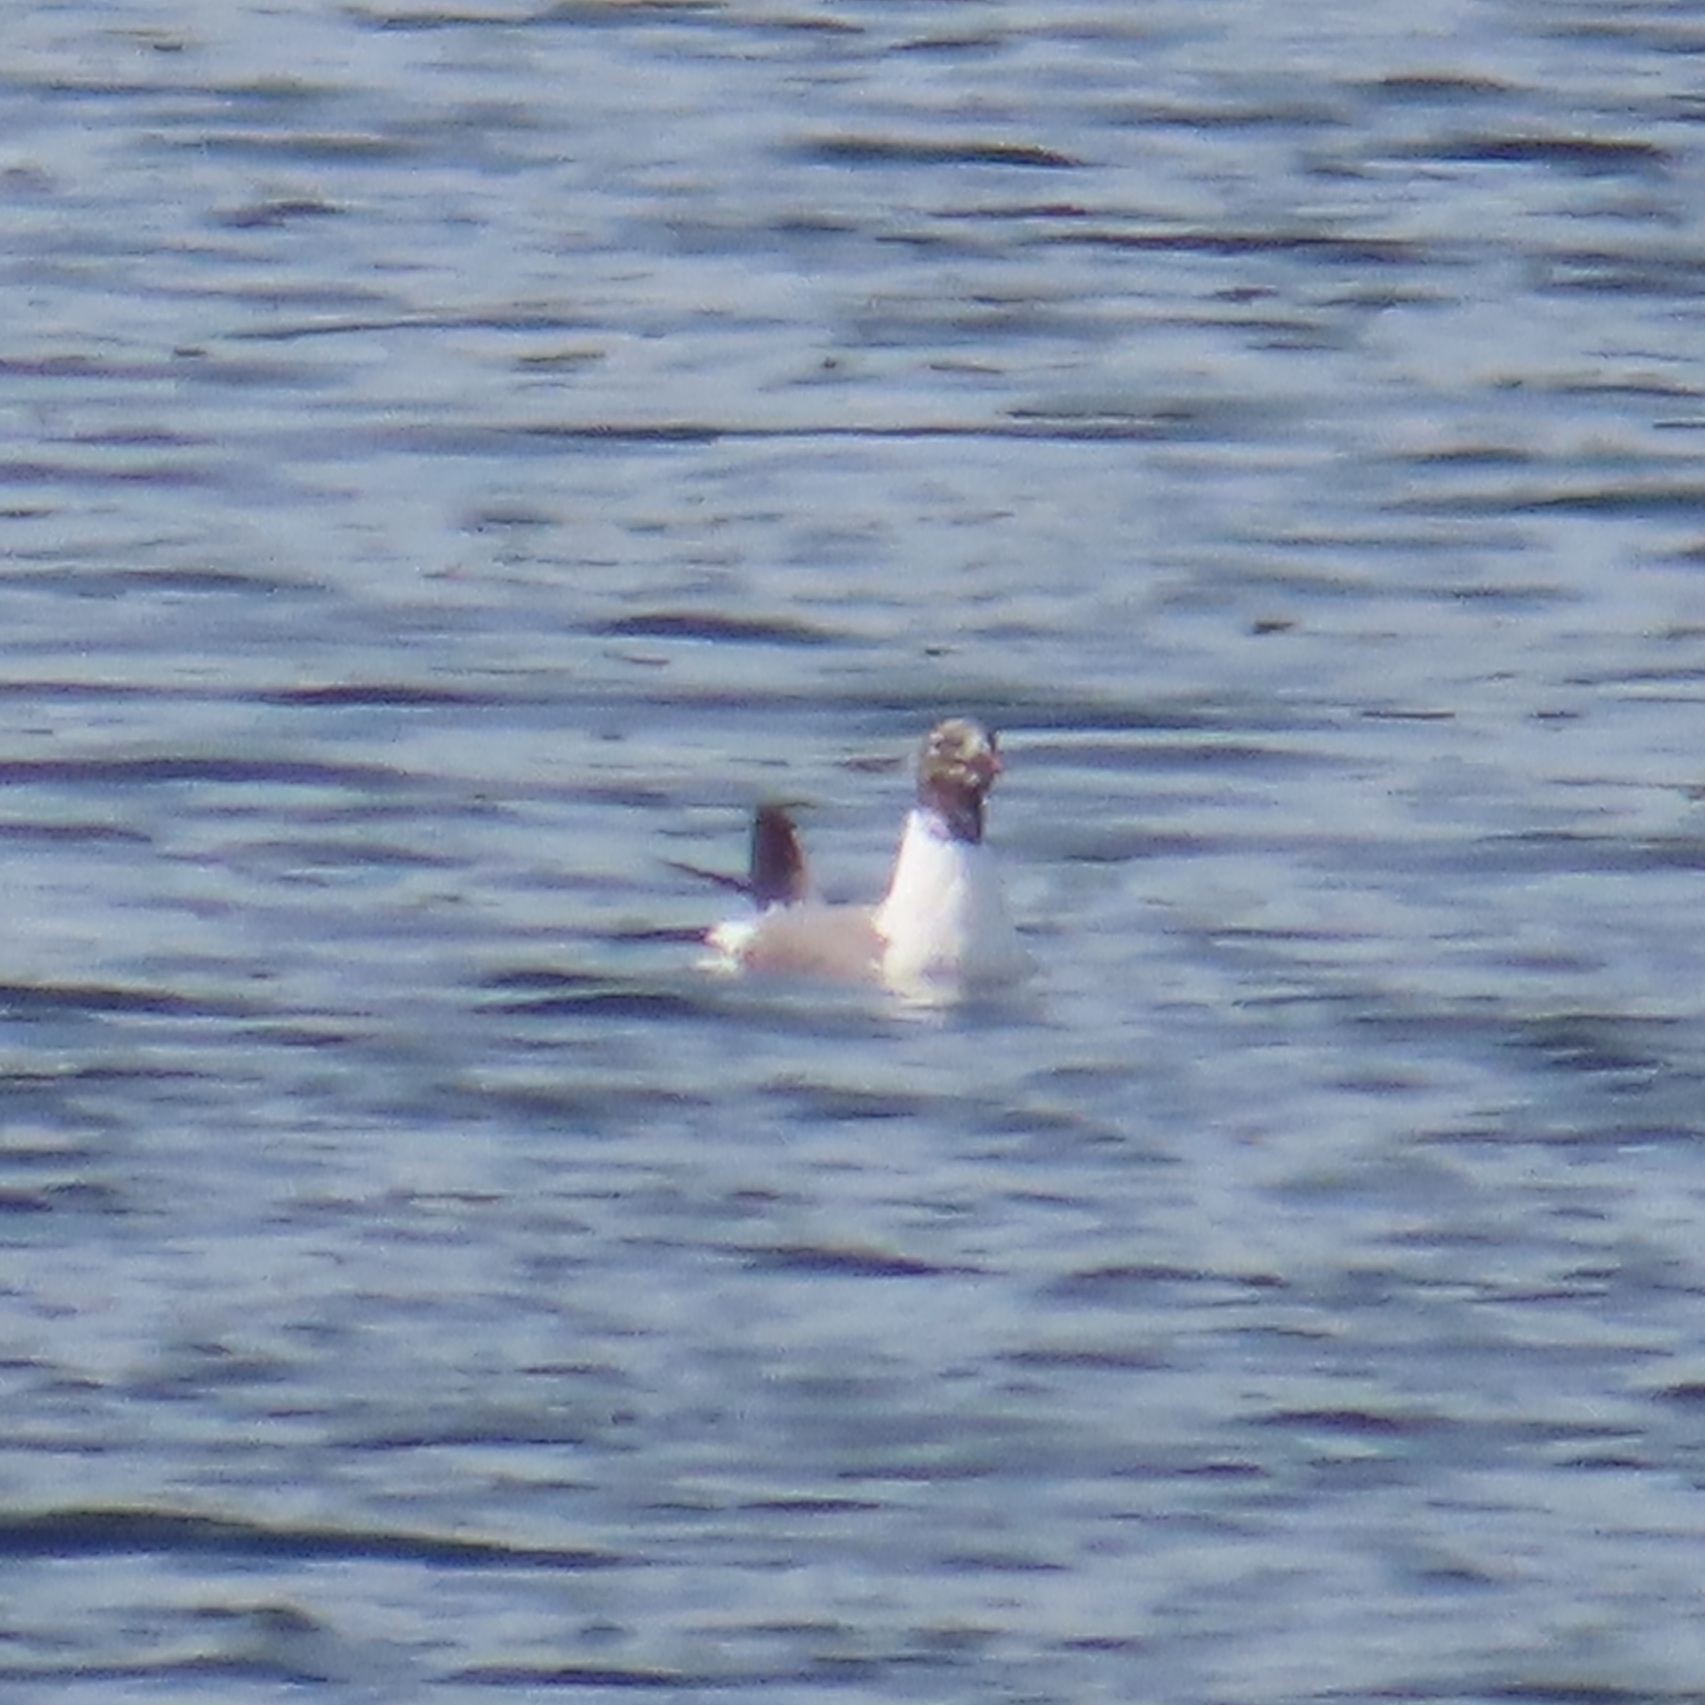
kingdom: Animalia
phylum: Chordata
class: Aves
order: Charadriiformes
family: Laridae
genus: Leucophaeus
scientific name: Leucophaeus atricilla
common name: Laughing gull
